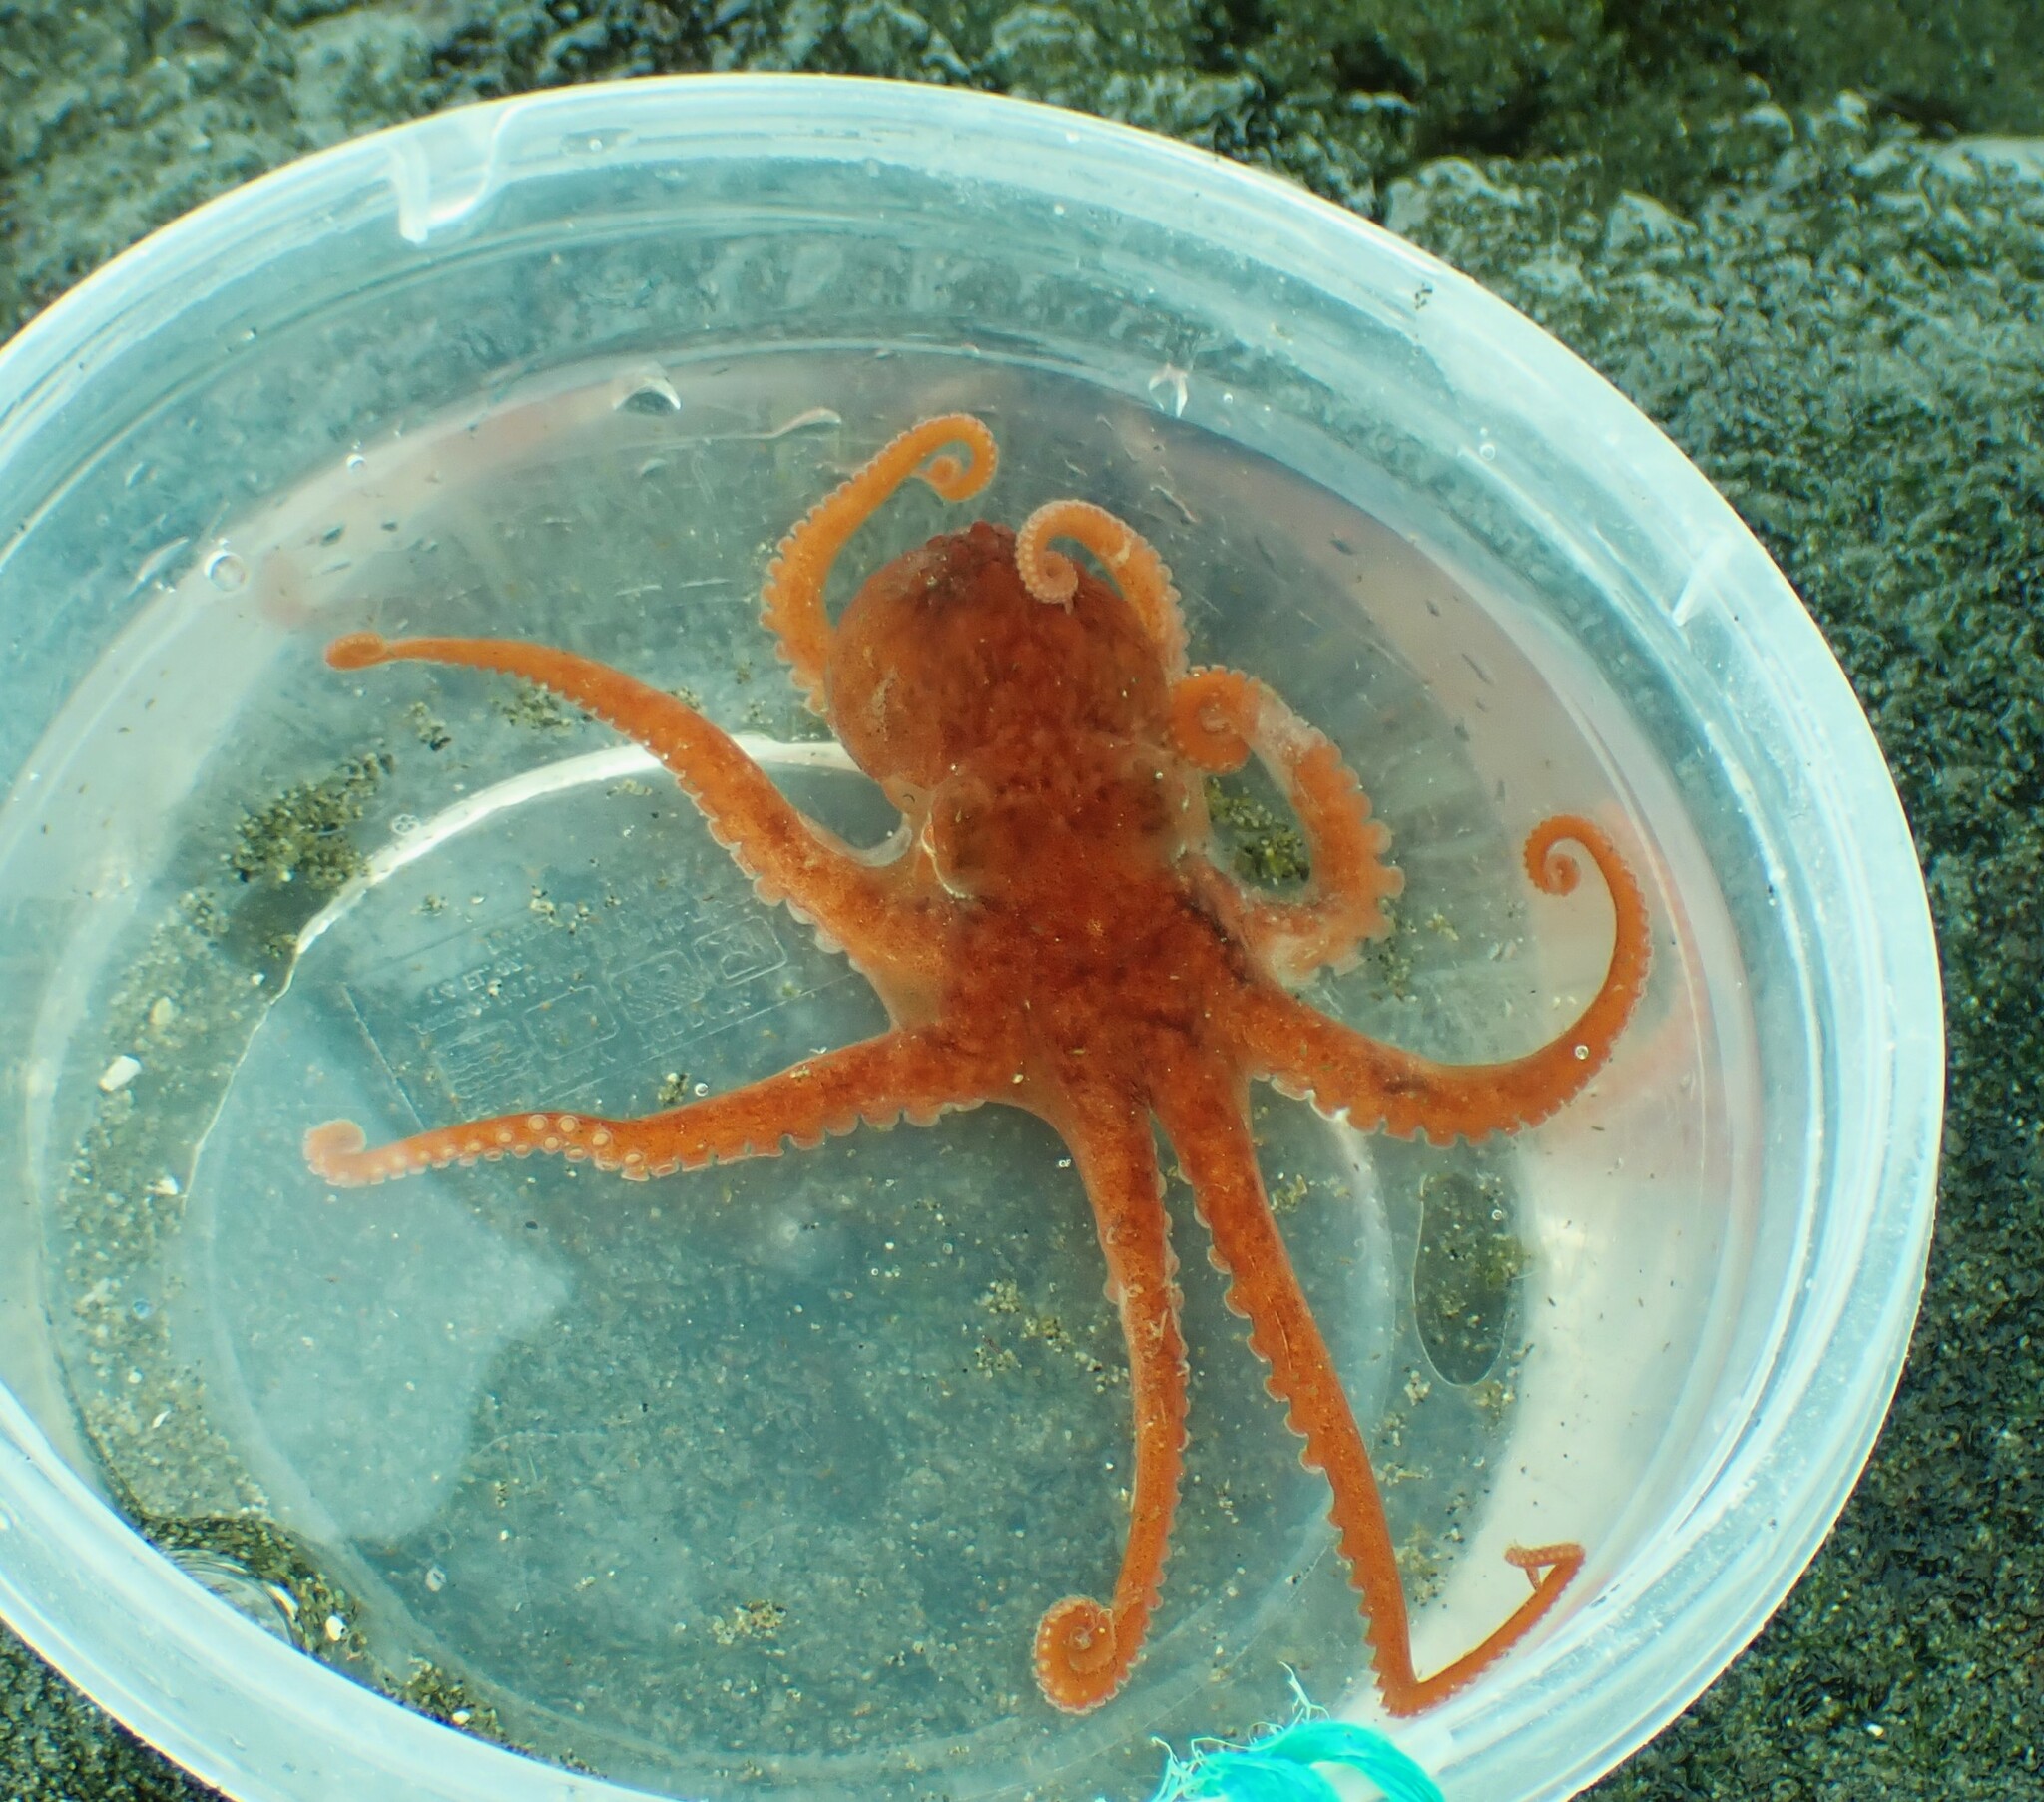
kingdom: Animalia
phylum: Mollusca
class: Cephalopoda
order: Octopoda
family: Octopodidae
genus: Octopus
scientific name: Octopus rubescens
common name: East pacific red octopus
